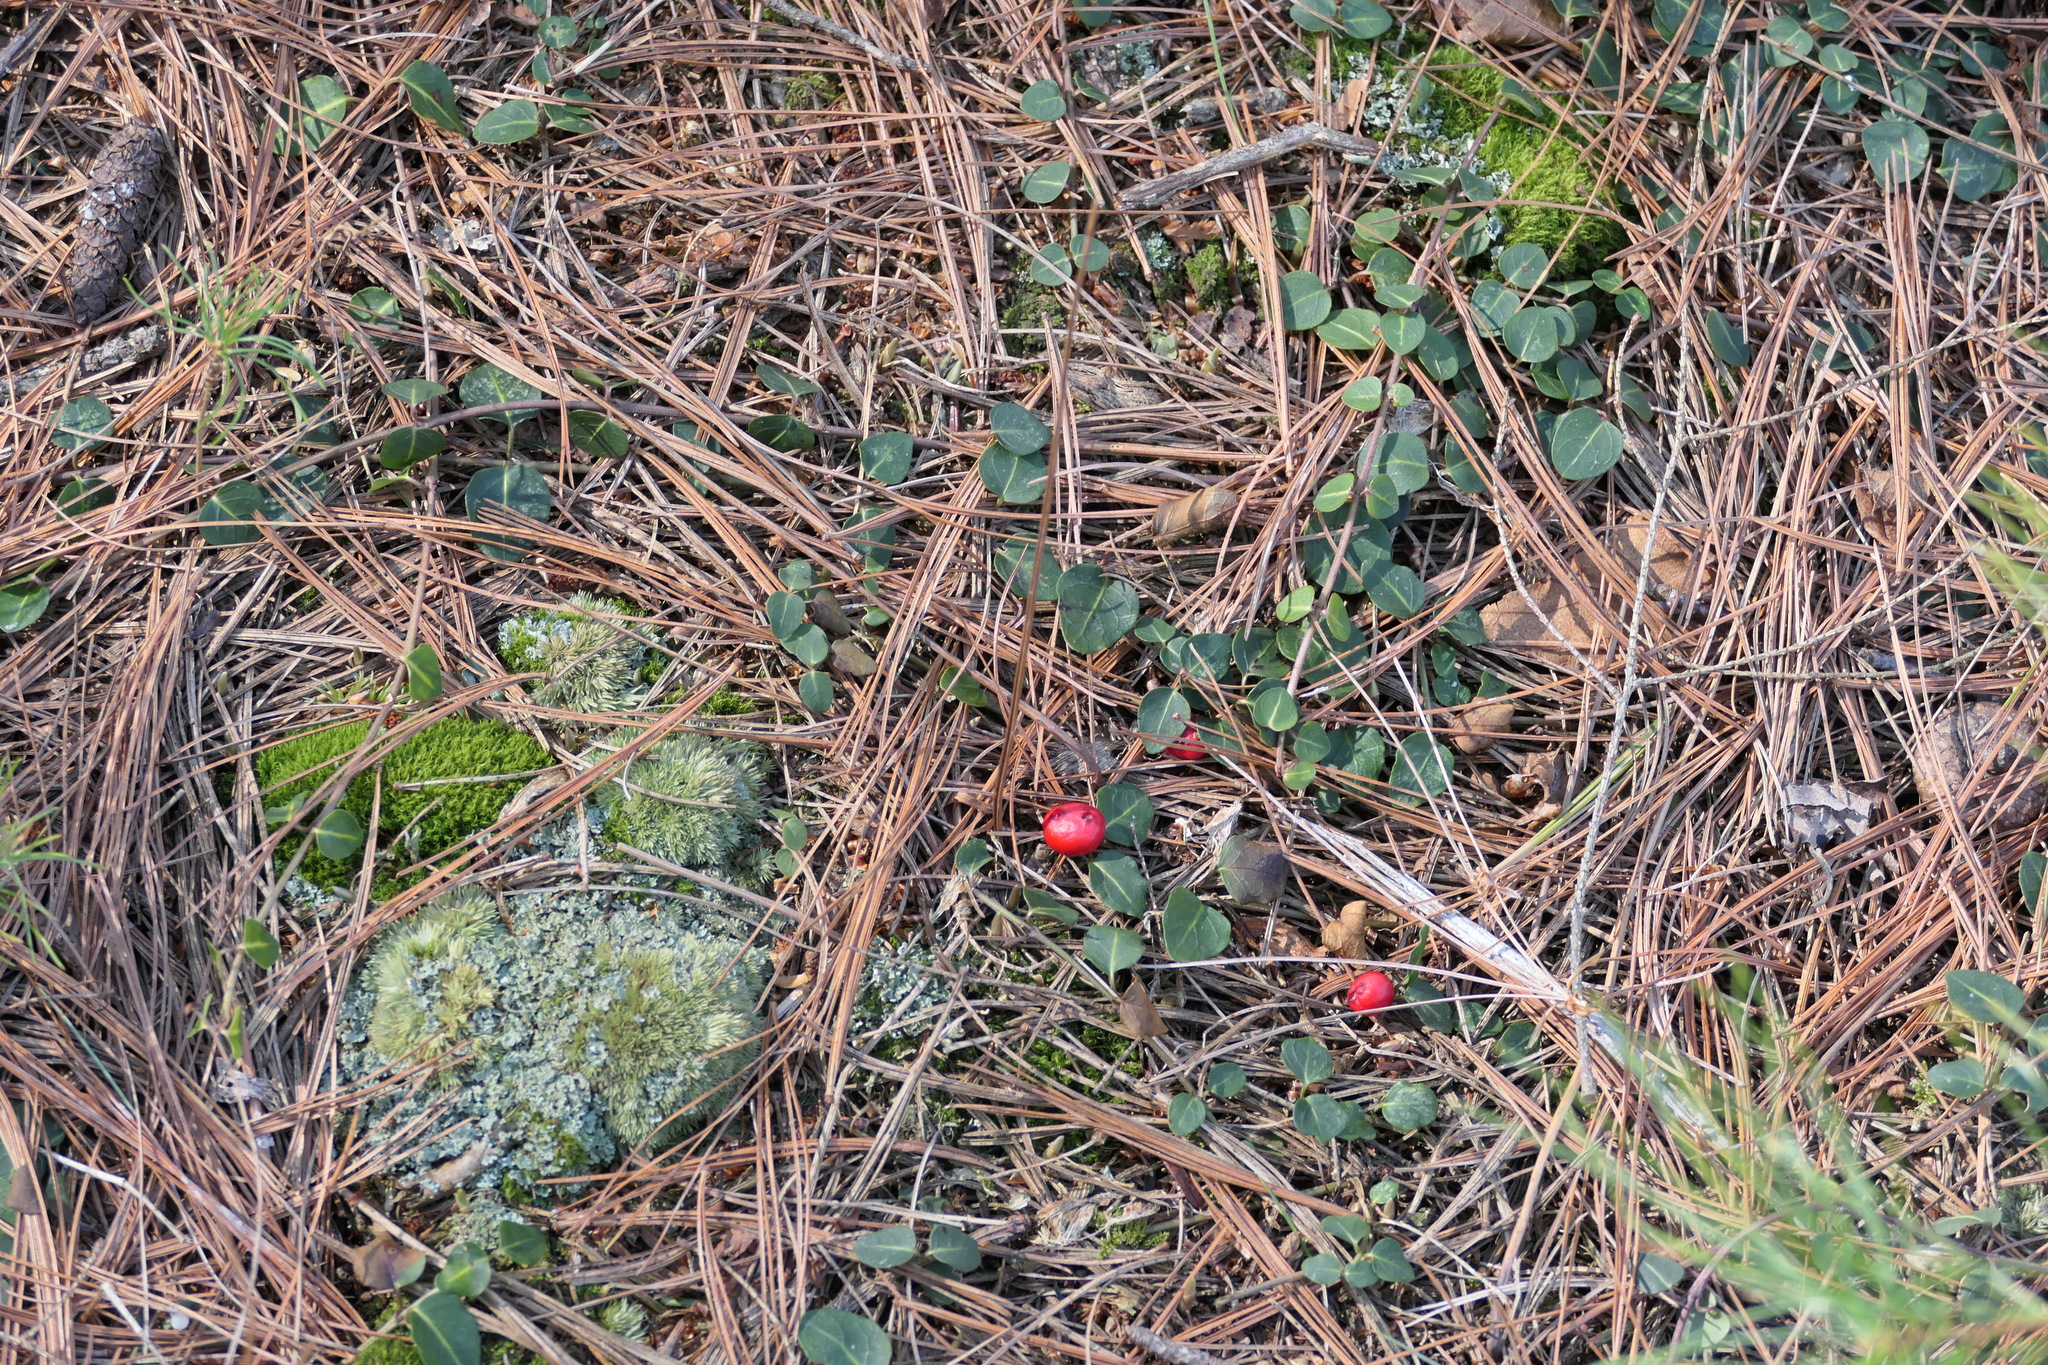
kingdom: Plantae
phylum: Tracheophyta
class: Magnoliopsida
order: Gentianales
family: Rubiaceae
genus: Mitchella
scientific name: Mitchella repens
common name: Partridge-berry
